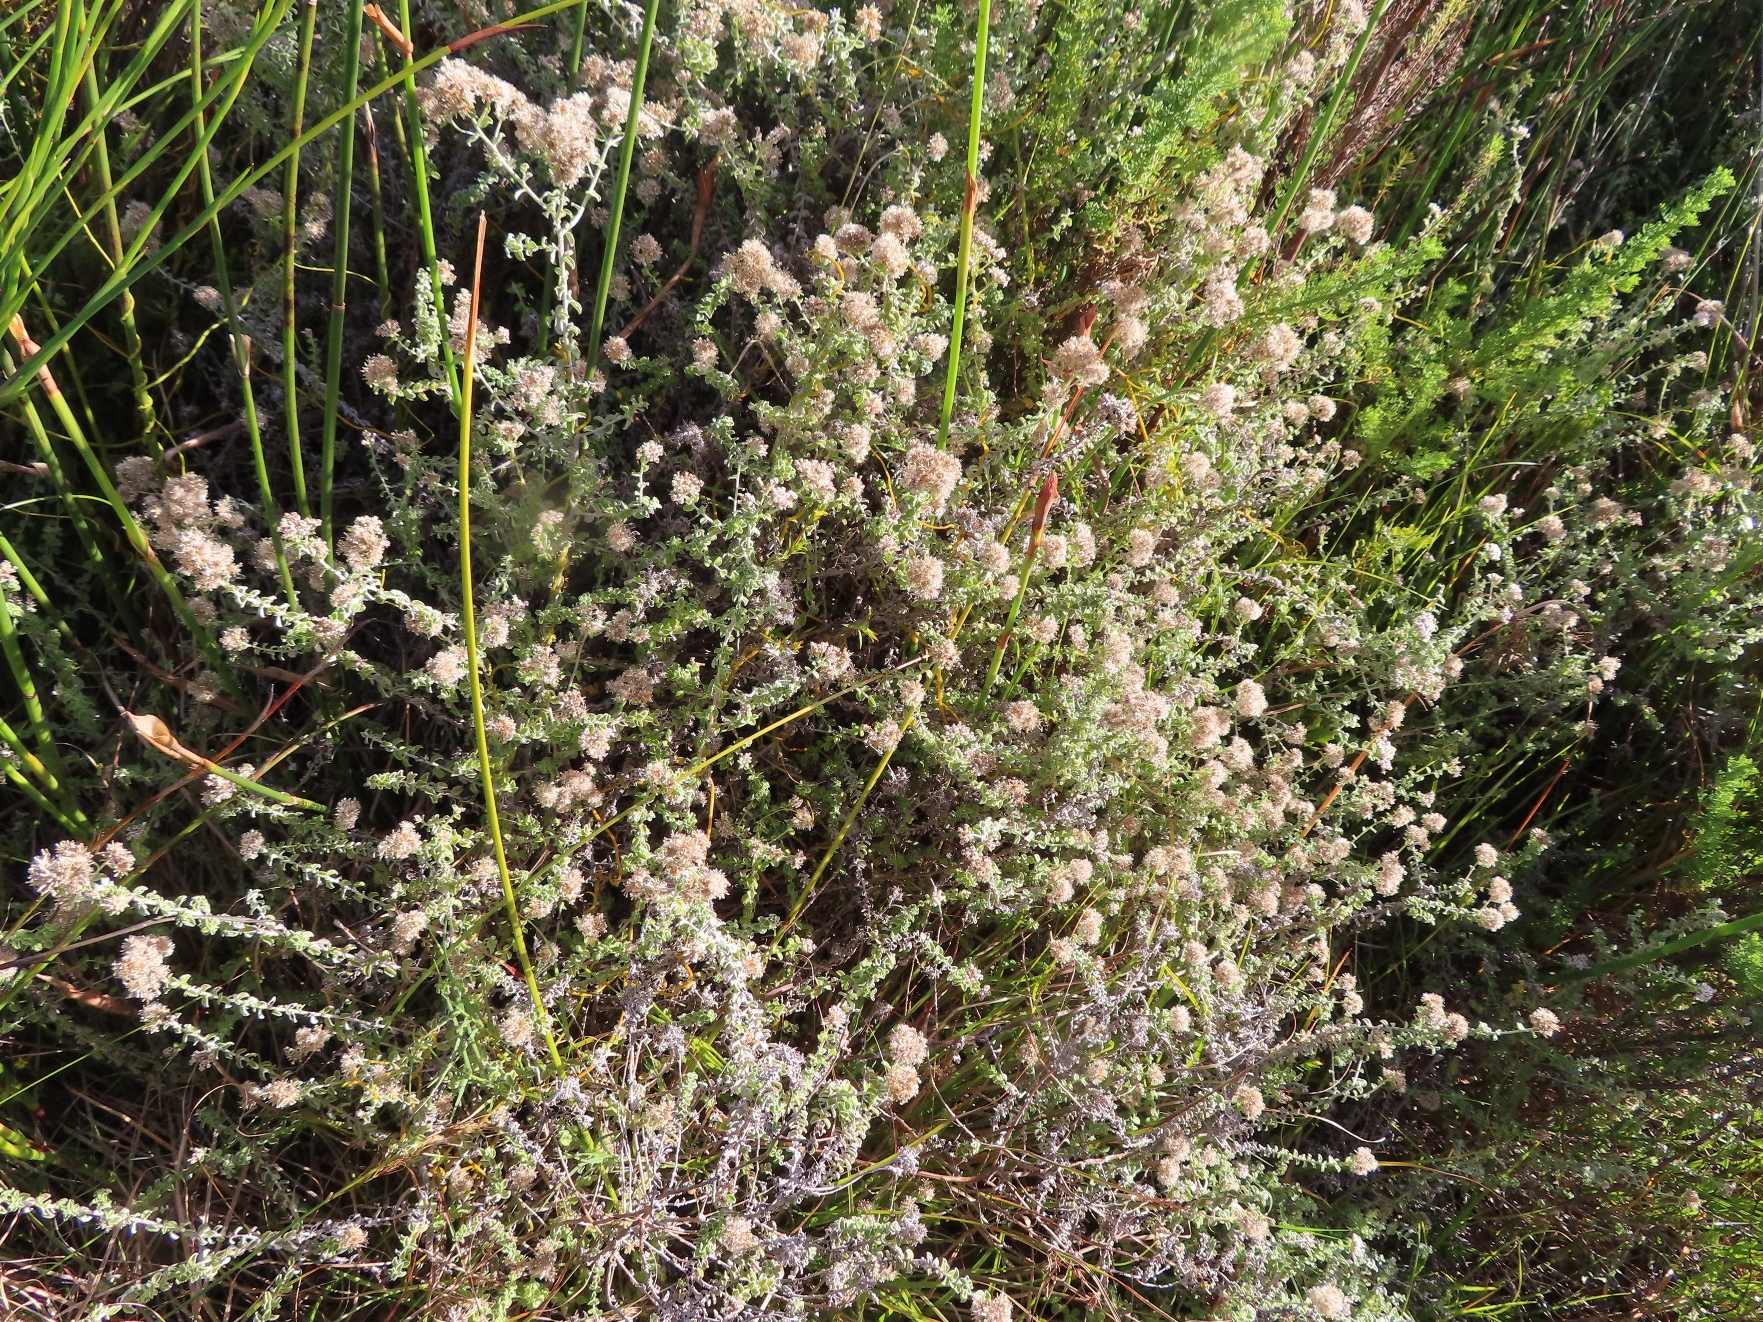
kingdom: Plantae
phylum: Tracheophyta
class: Magnoliopsida
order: Asterales
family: Asteraceae
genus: Plecostachys
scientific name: Plecostachys serpyllifolia
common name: Petite licorice
